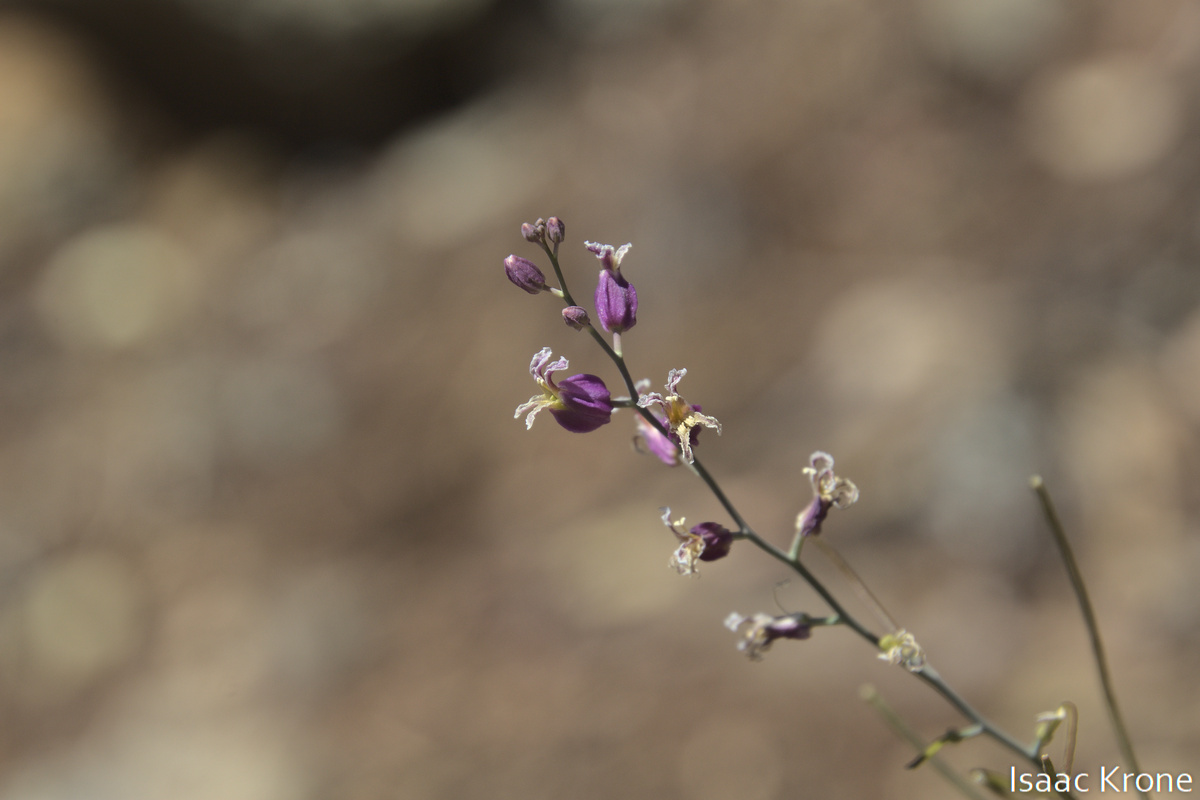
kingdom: Plantae
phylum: Tracheophyta
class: Magnoliopsida
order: Brassicales
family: Brassicaceae
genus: Streptanthus
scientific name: Streptanthus glandulosus
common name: Jewel-flower
